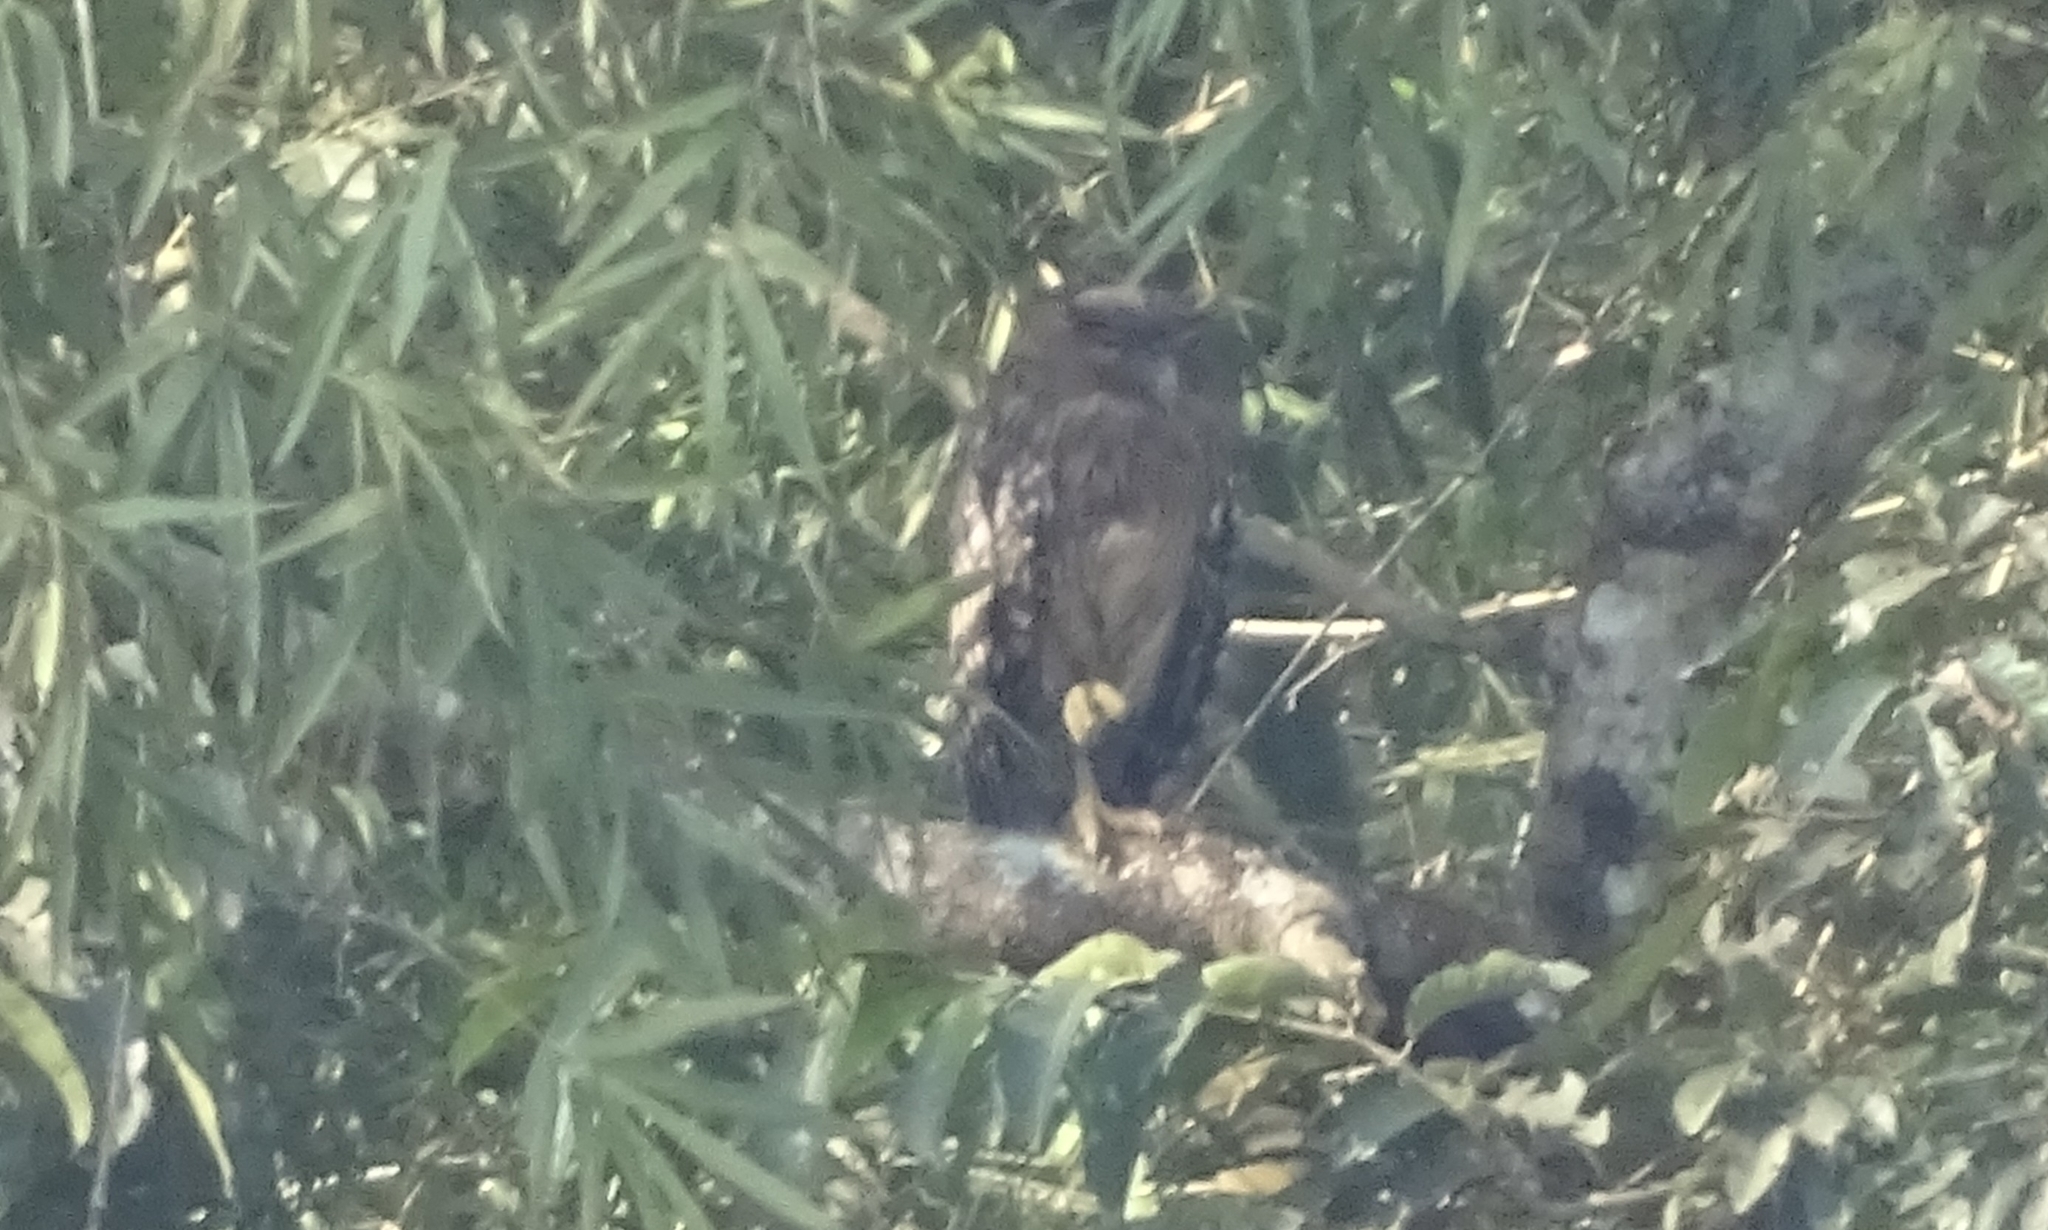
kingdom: Animalia
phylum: Chordata
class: Aves
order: Strigiformes
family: Strigidae
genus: Ketupa
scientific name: Ketupa zeylonensis
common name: Brown fish owl
